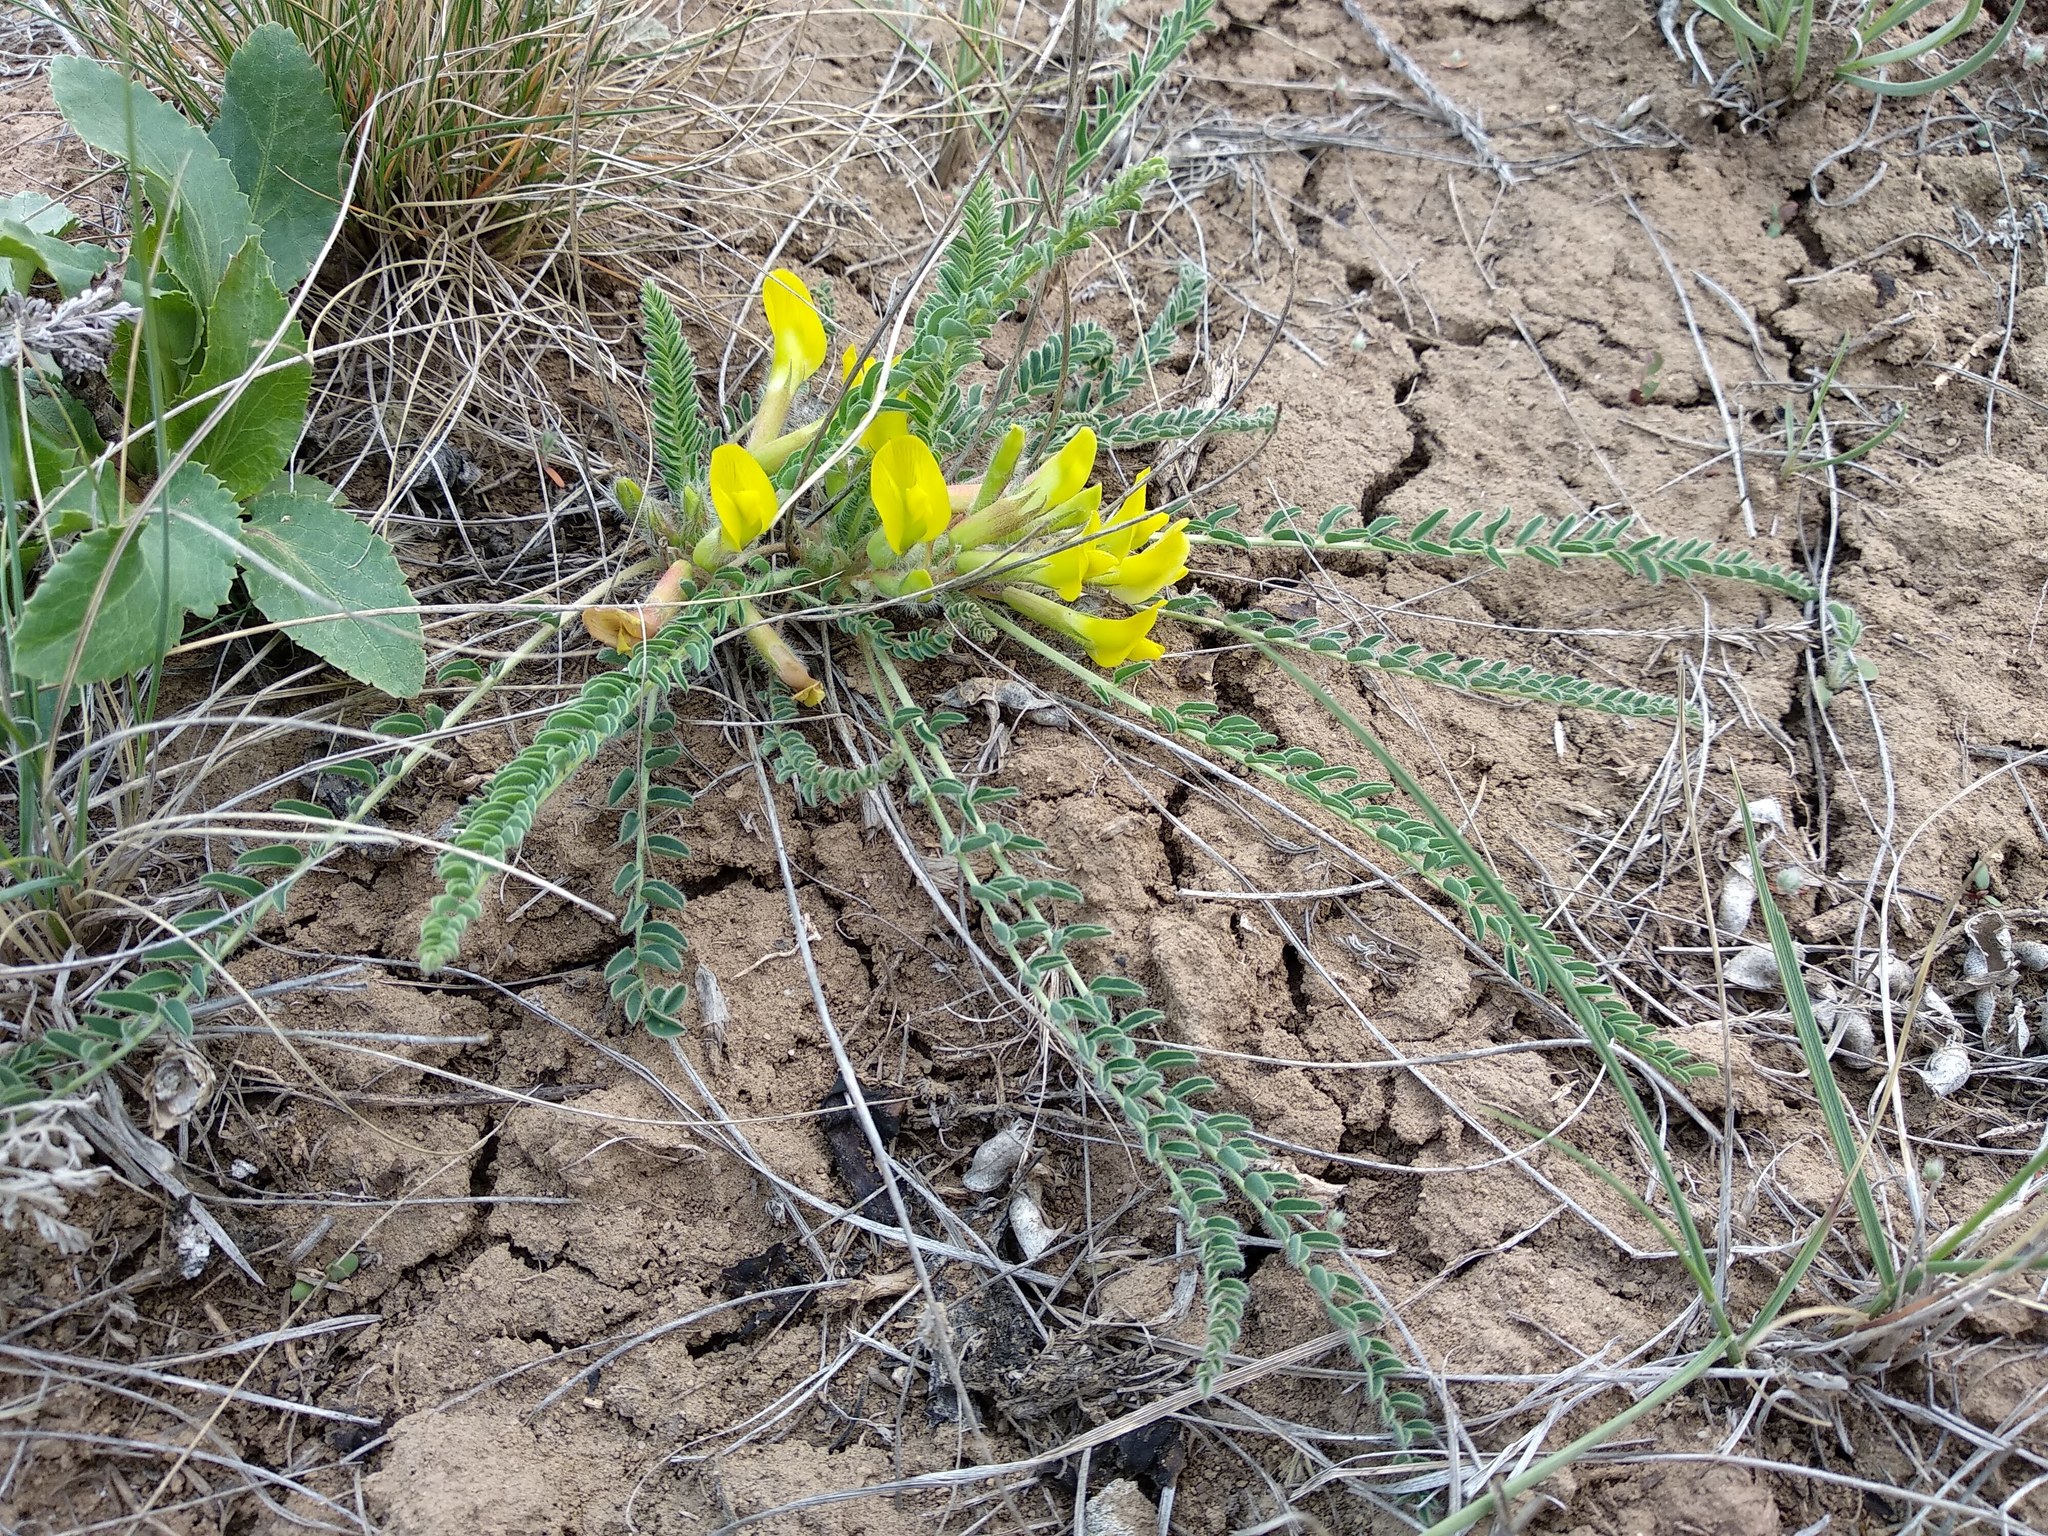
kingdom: Plantae
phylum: Tracheophyta
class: Magnoliopsida
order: Fabales
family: Fabaceae
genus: Astragalus
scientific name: Astragalus buchtormensis
